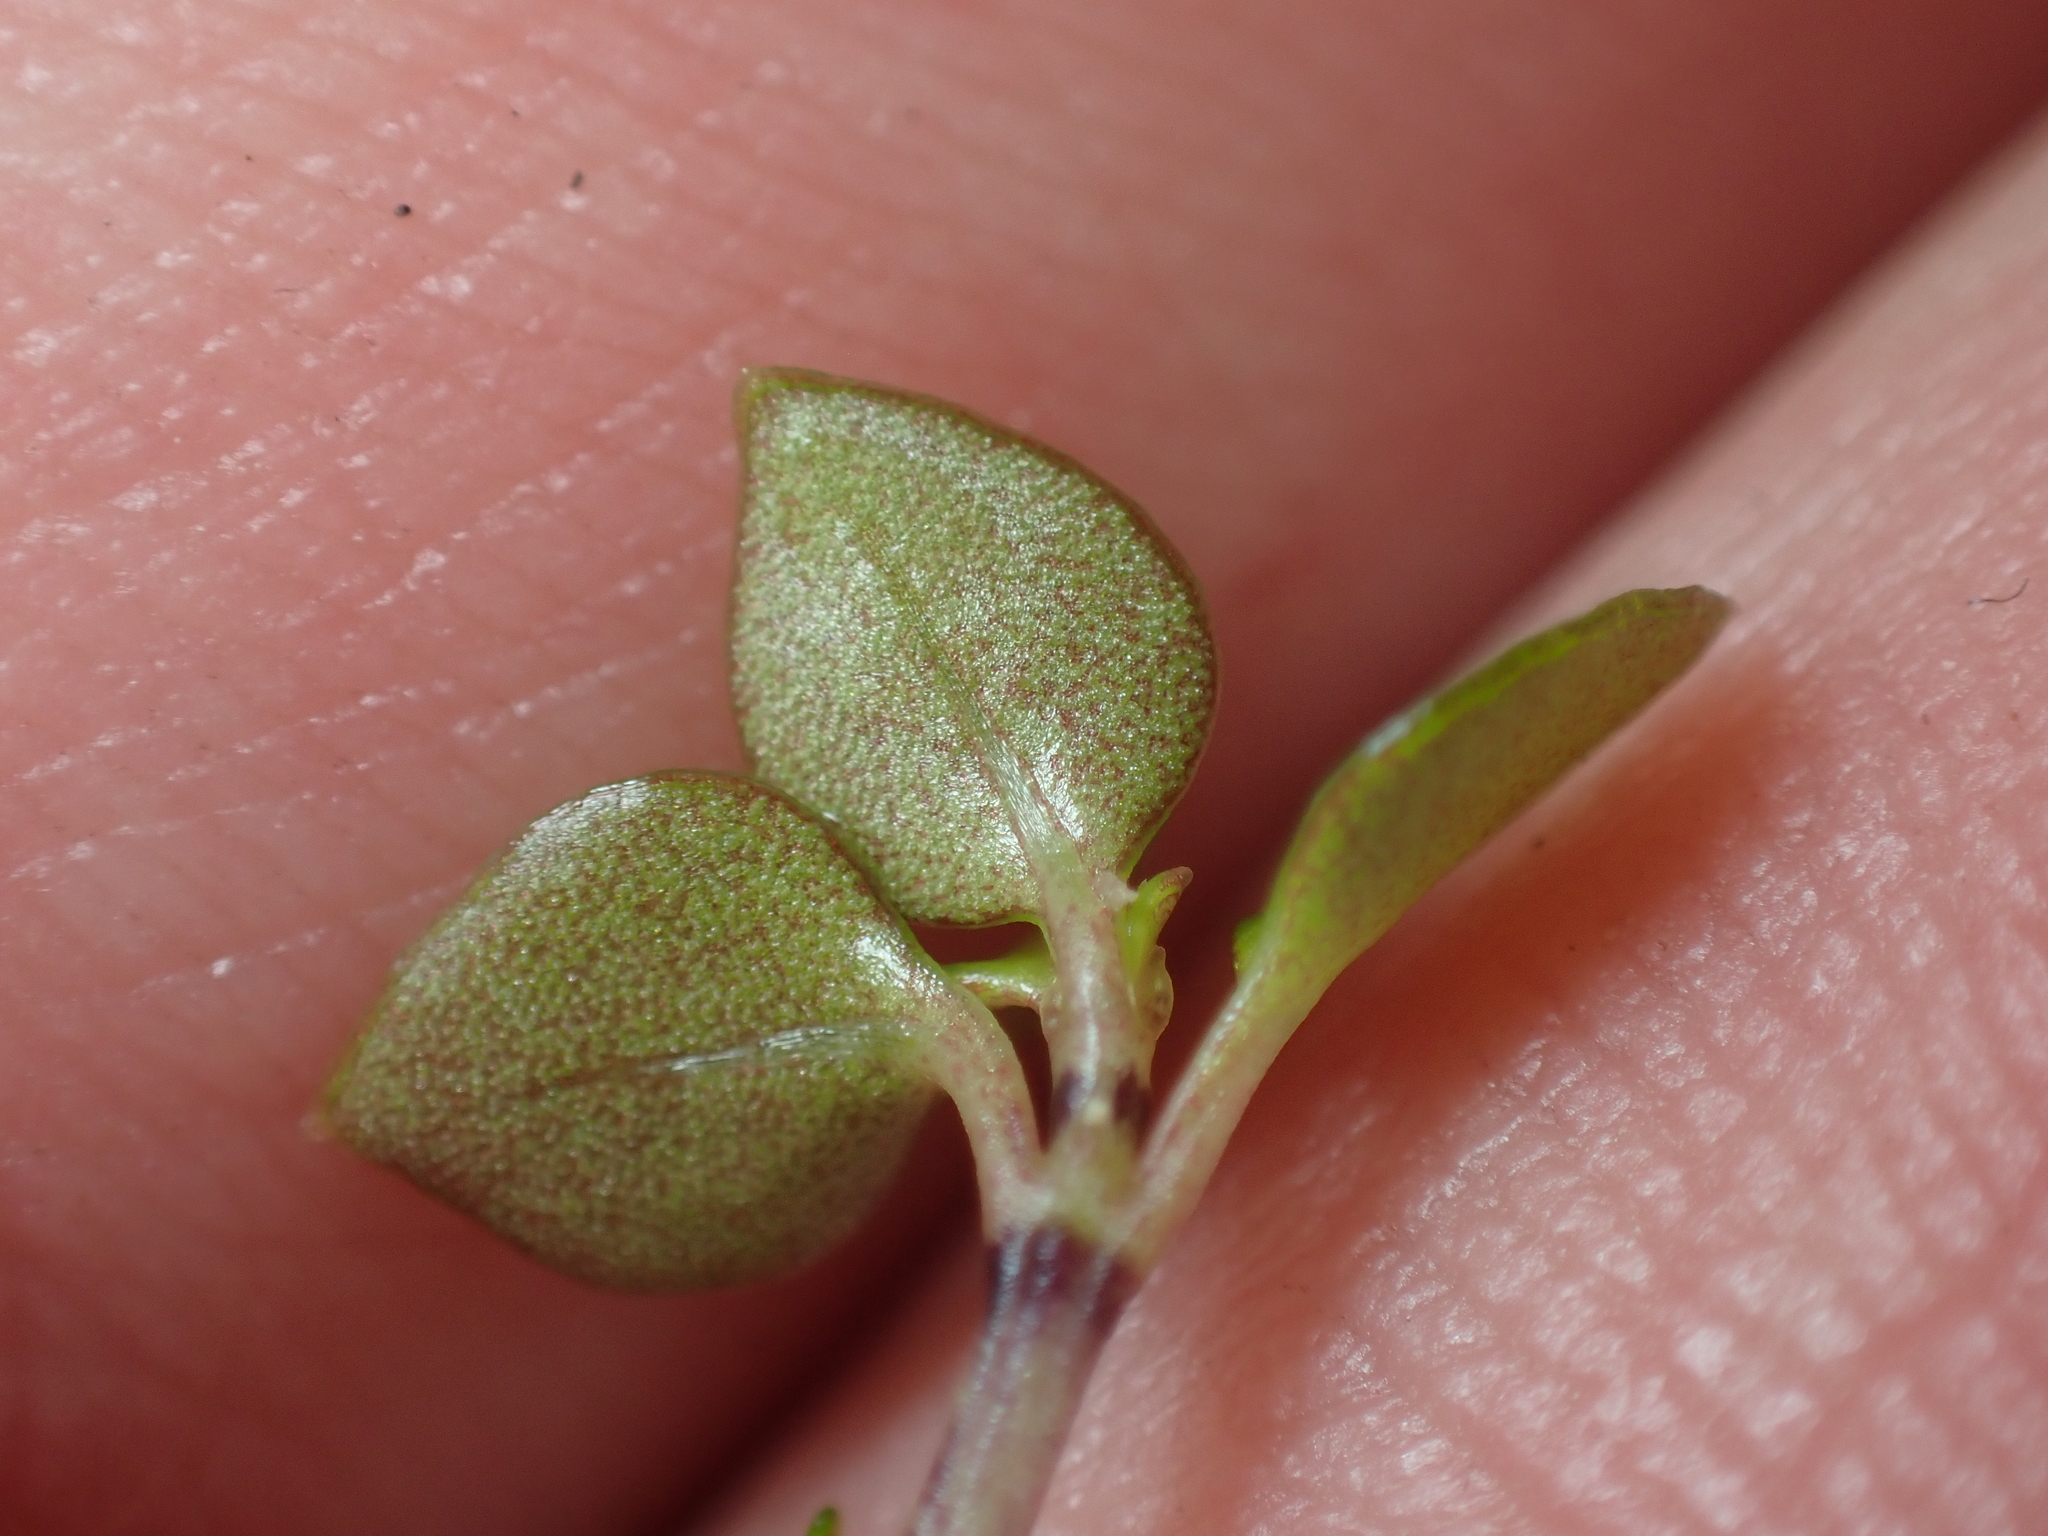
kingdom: Plantae
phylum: Tracheophyta
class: Magnoliopsida
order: Gentianales
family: Rubiaceae
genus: Nertera
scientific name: Nertera granadensis
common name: Beadplant
